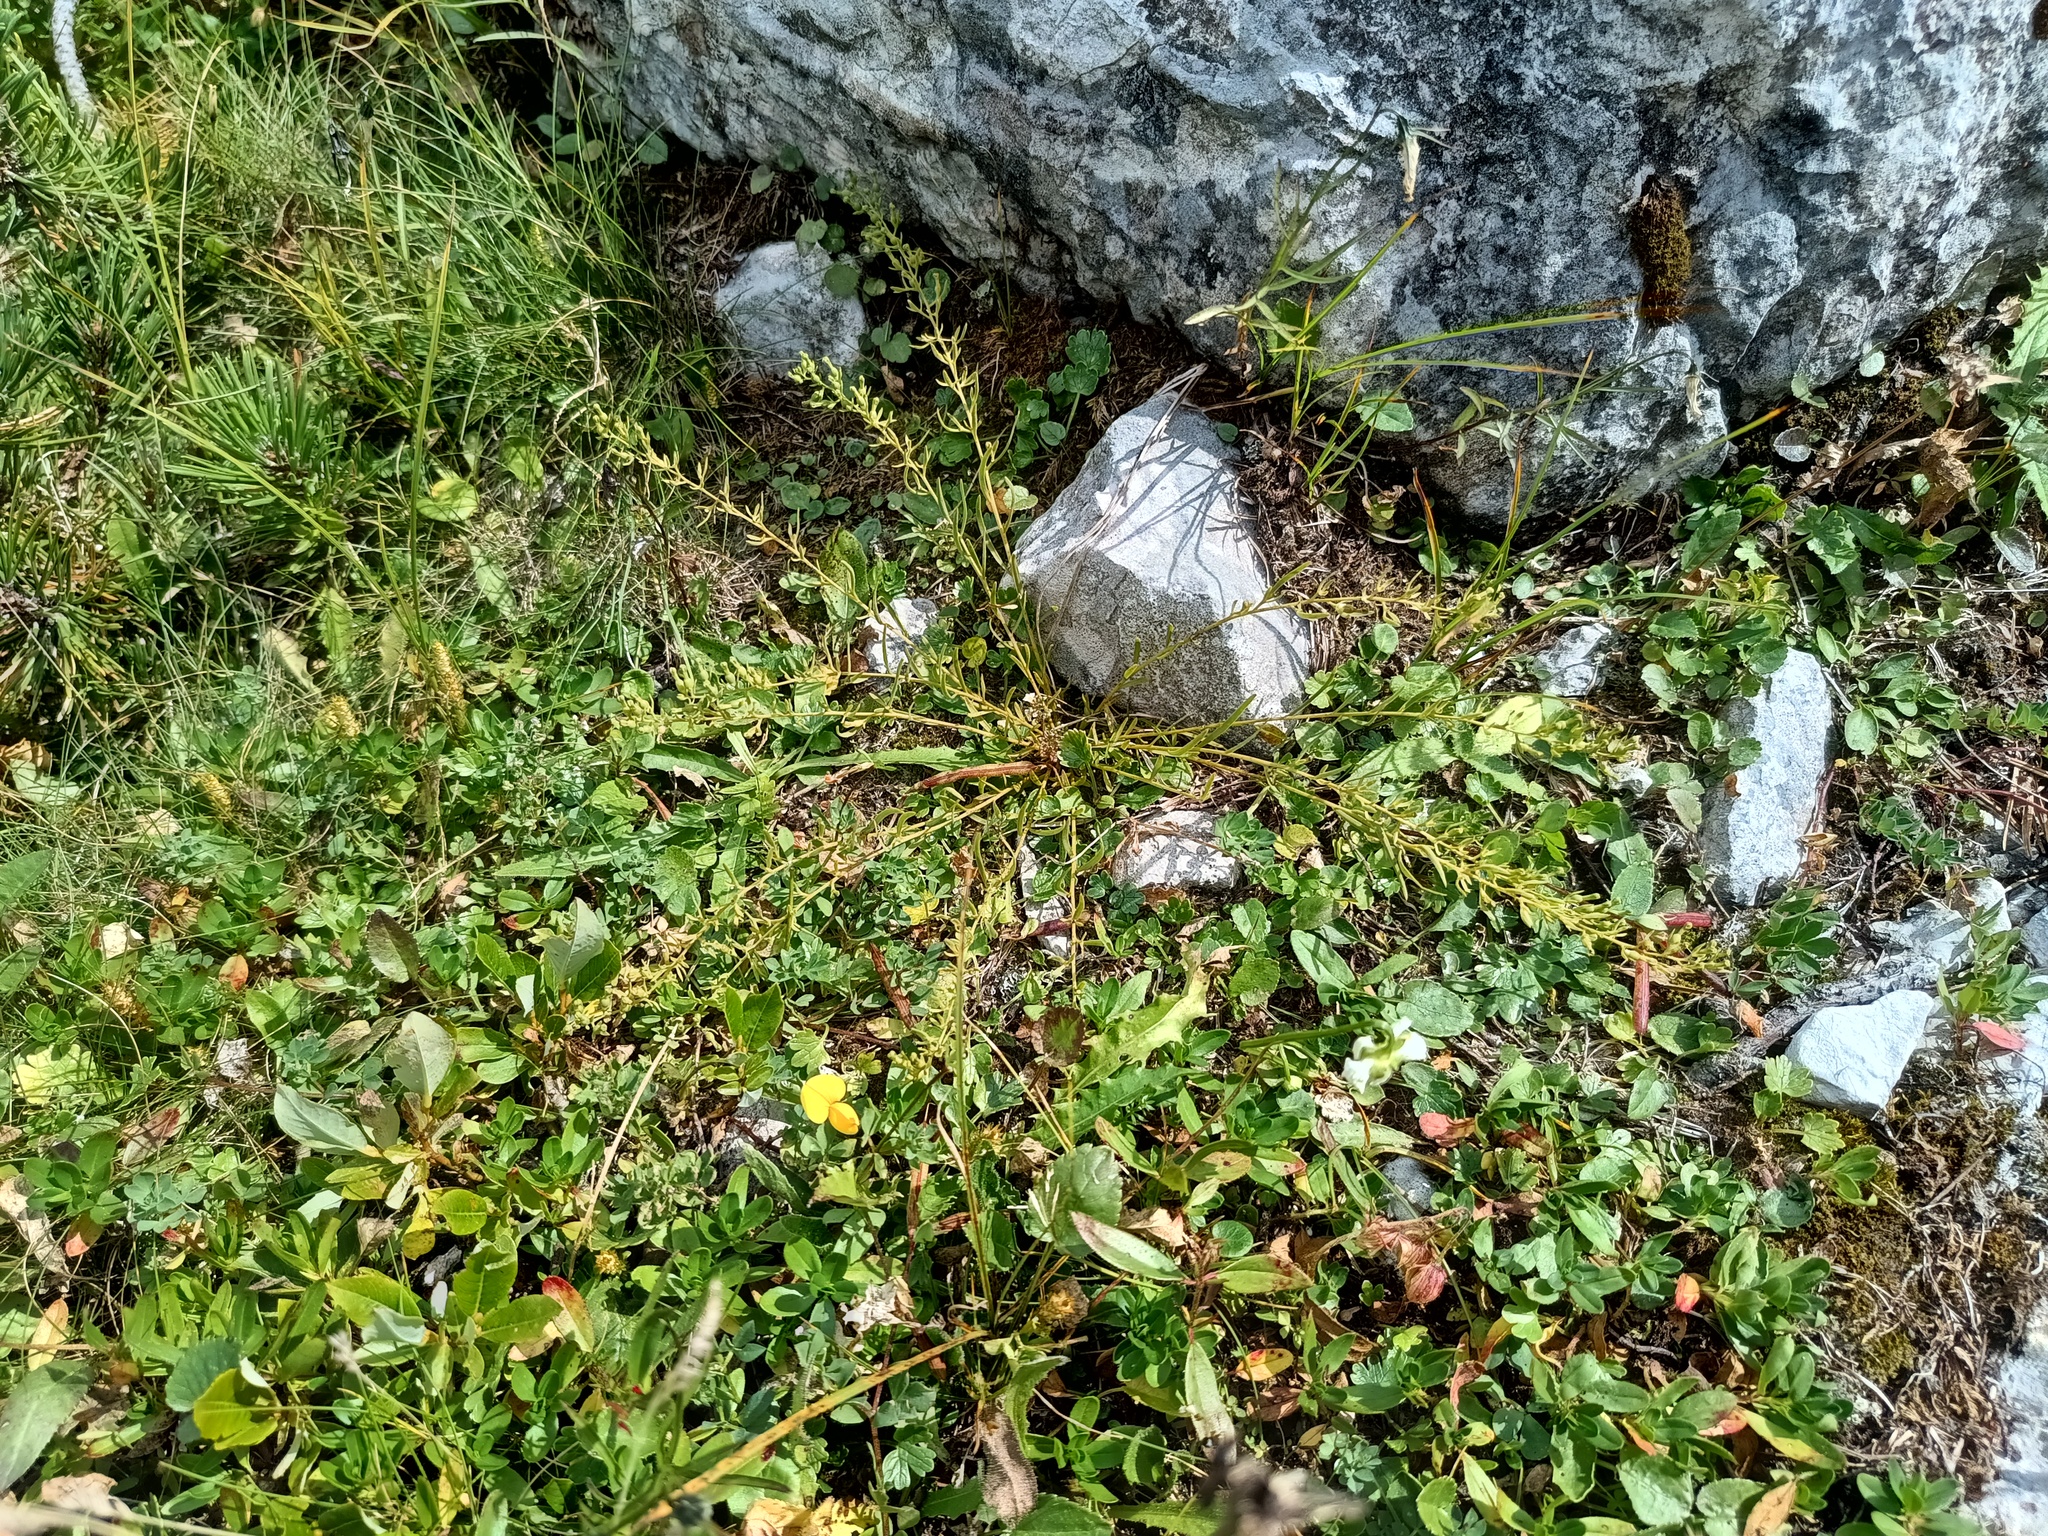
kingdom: Plantae
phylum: Tracheophyta
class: Magnoliopsida
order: Santalales
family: Thesiaceae
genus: Thesium
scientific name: Thesium alpinum
